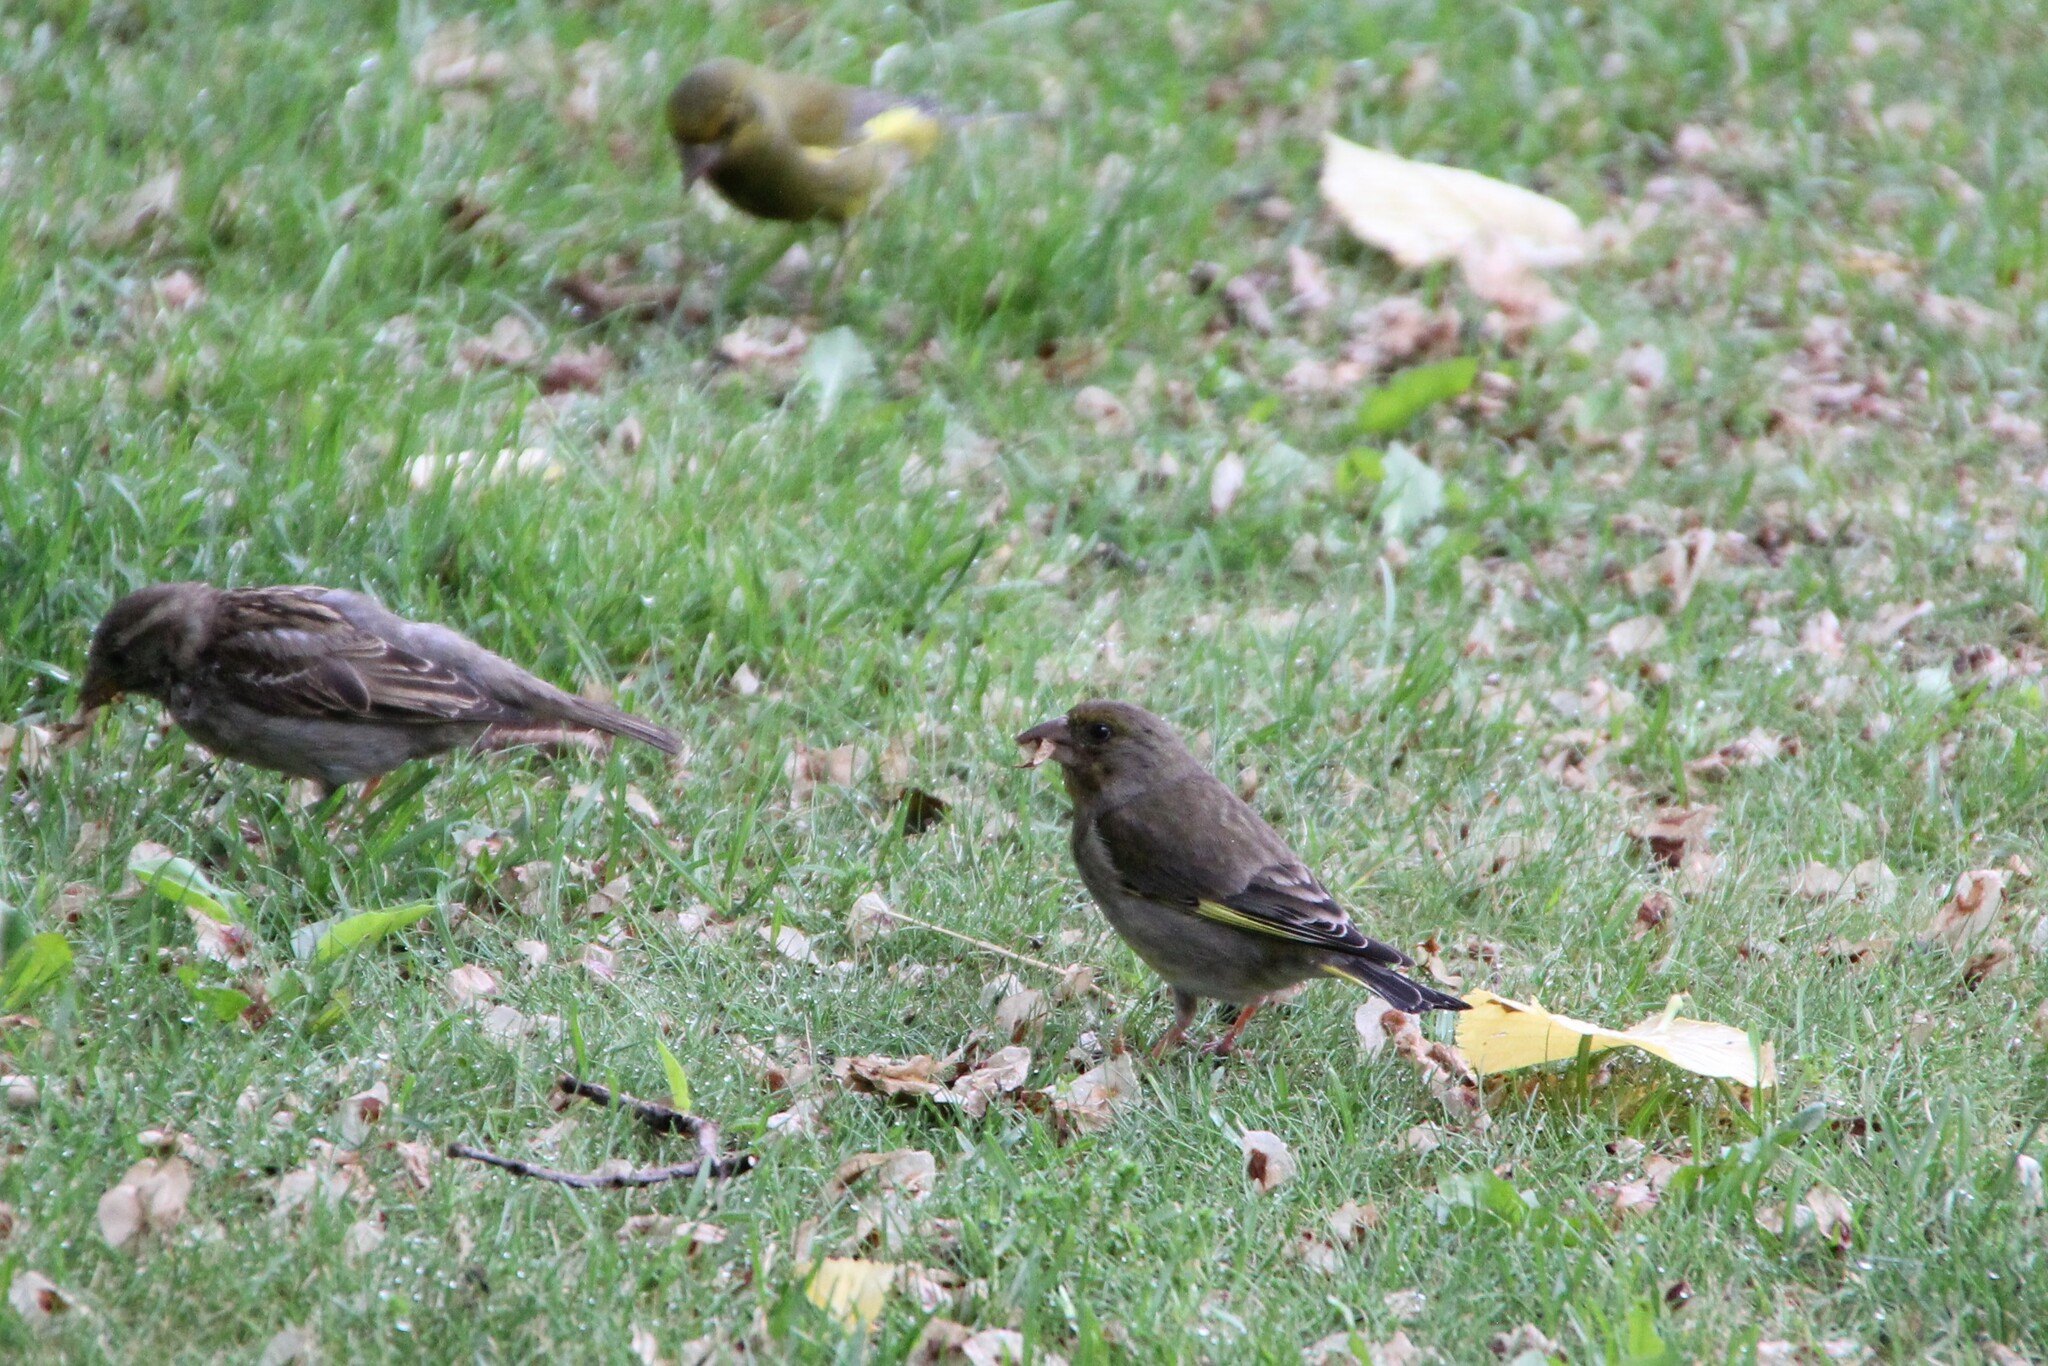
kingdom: Plantae
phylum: Tracheophyta
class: Liliopsida
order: Poales
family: Poaceae
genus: Chloris
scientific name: Chloris chloris
